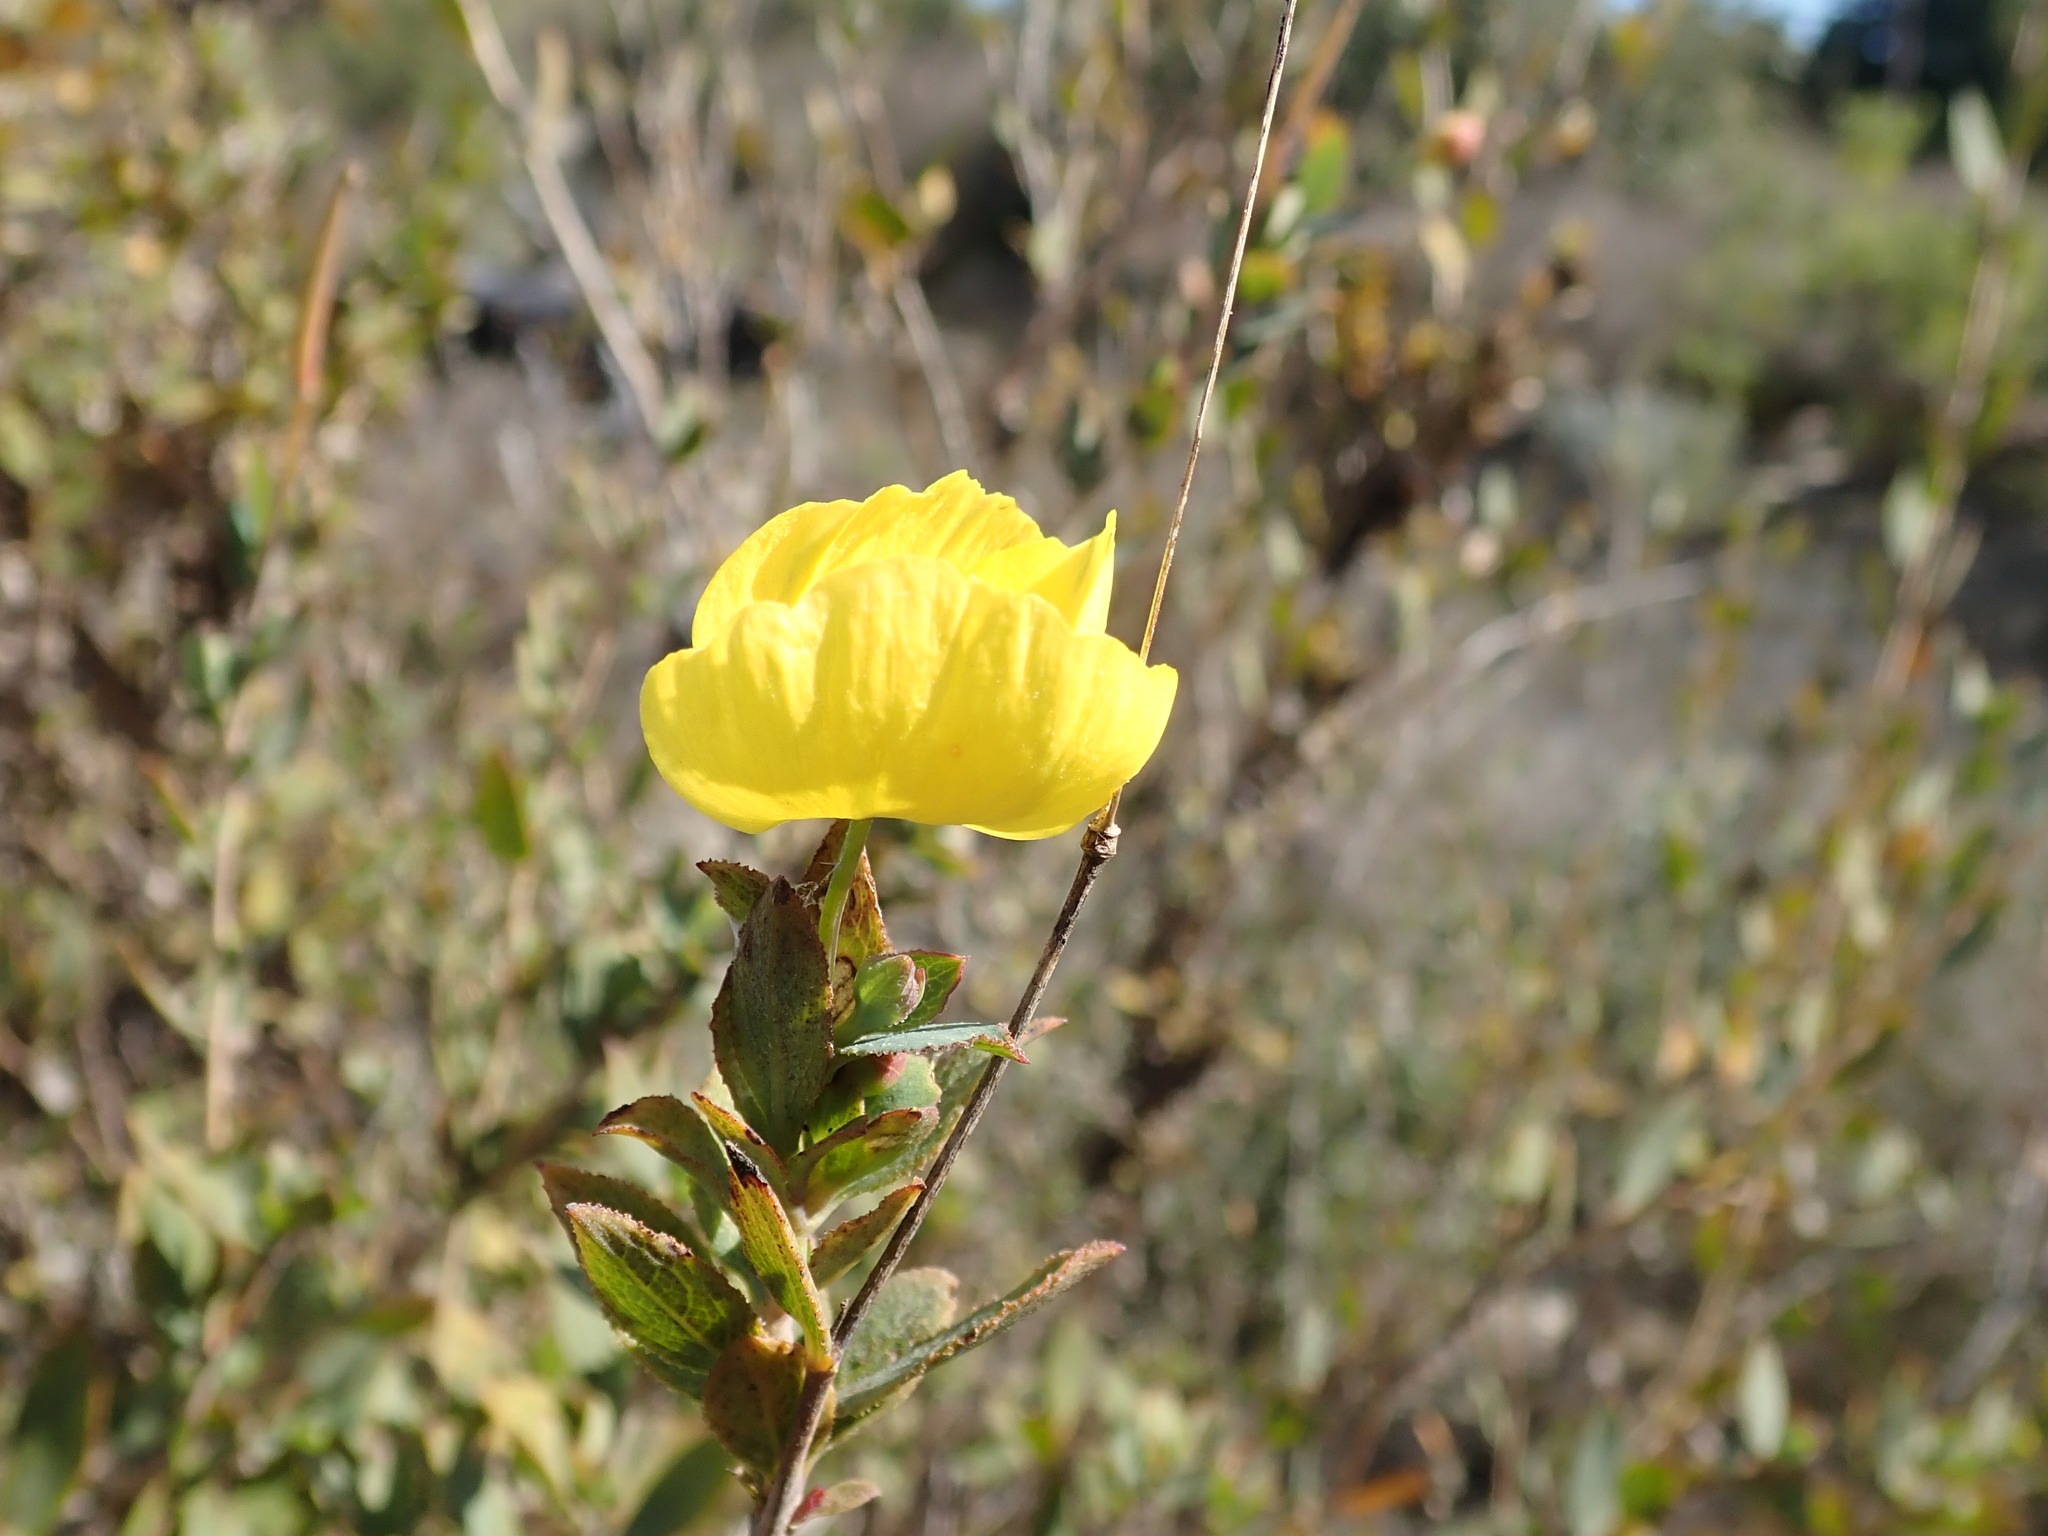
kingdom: Plantae
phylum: Tracheophyta
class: Magnoliopsida
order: Ranunculales
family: Papaveraceae
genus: Dendromecon
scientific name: Dendromecon rigida
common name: Tree poppy
